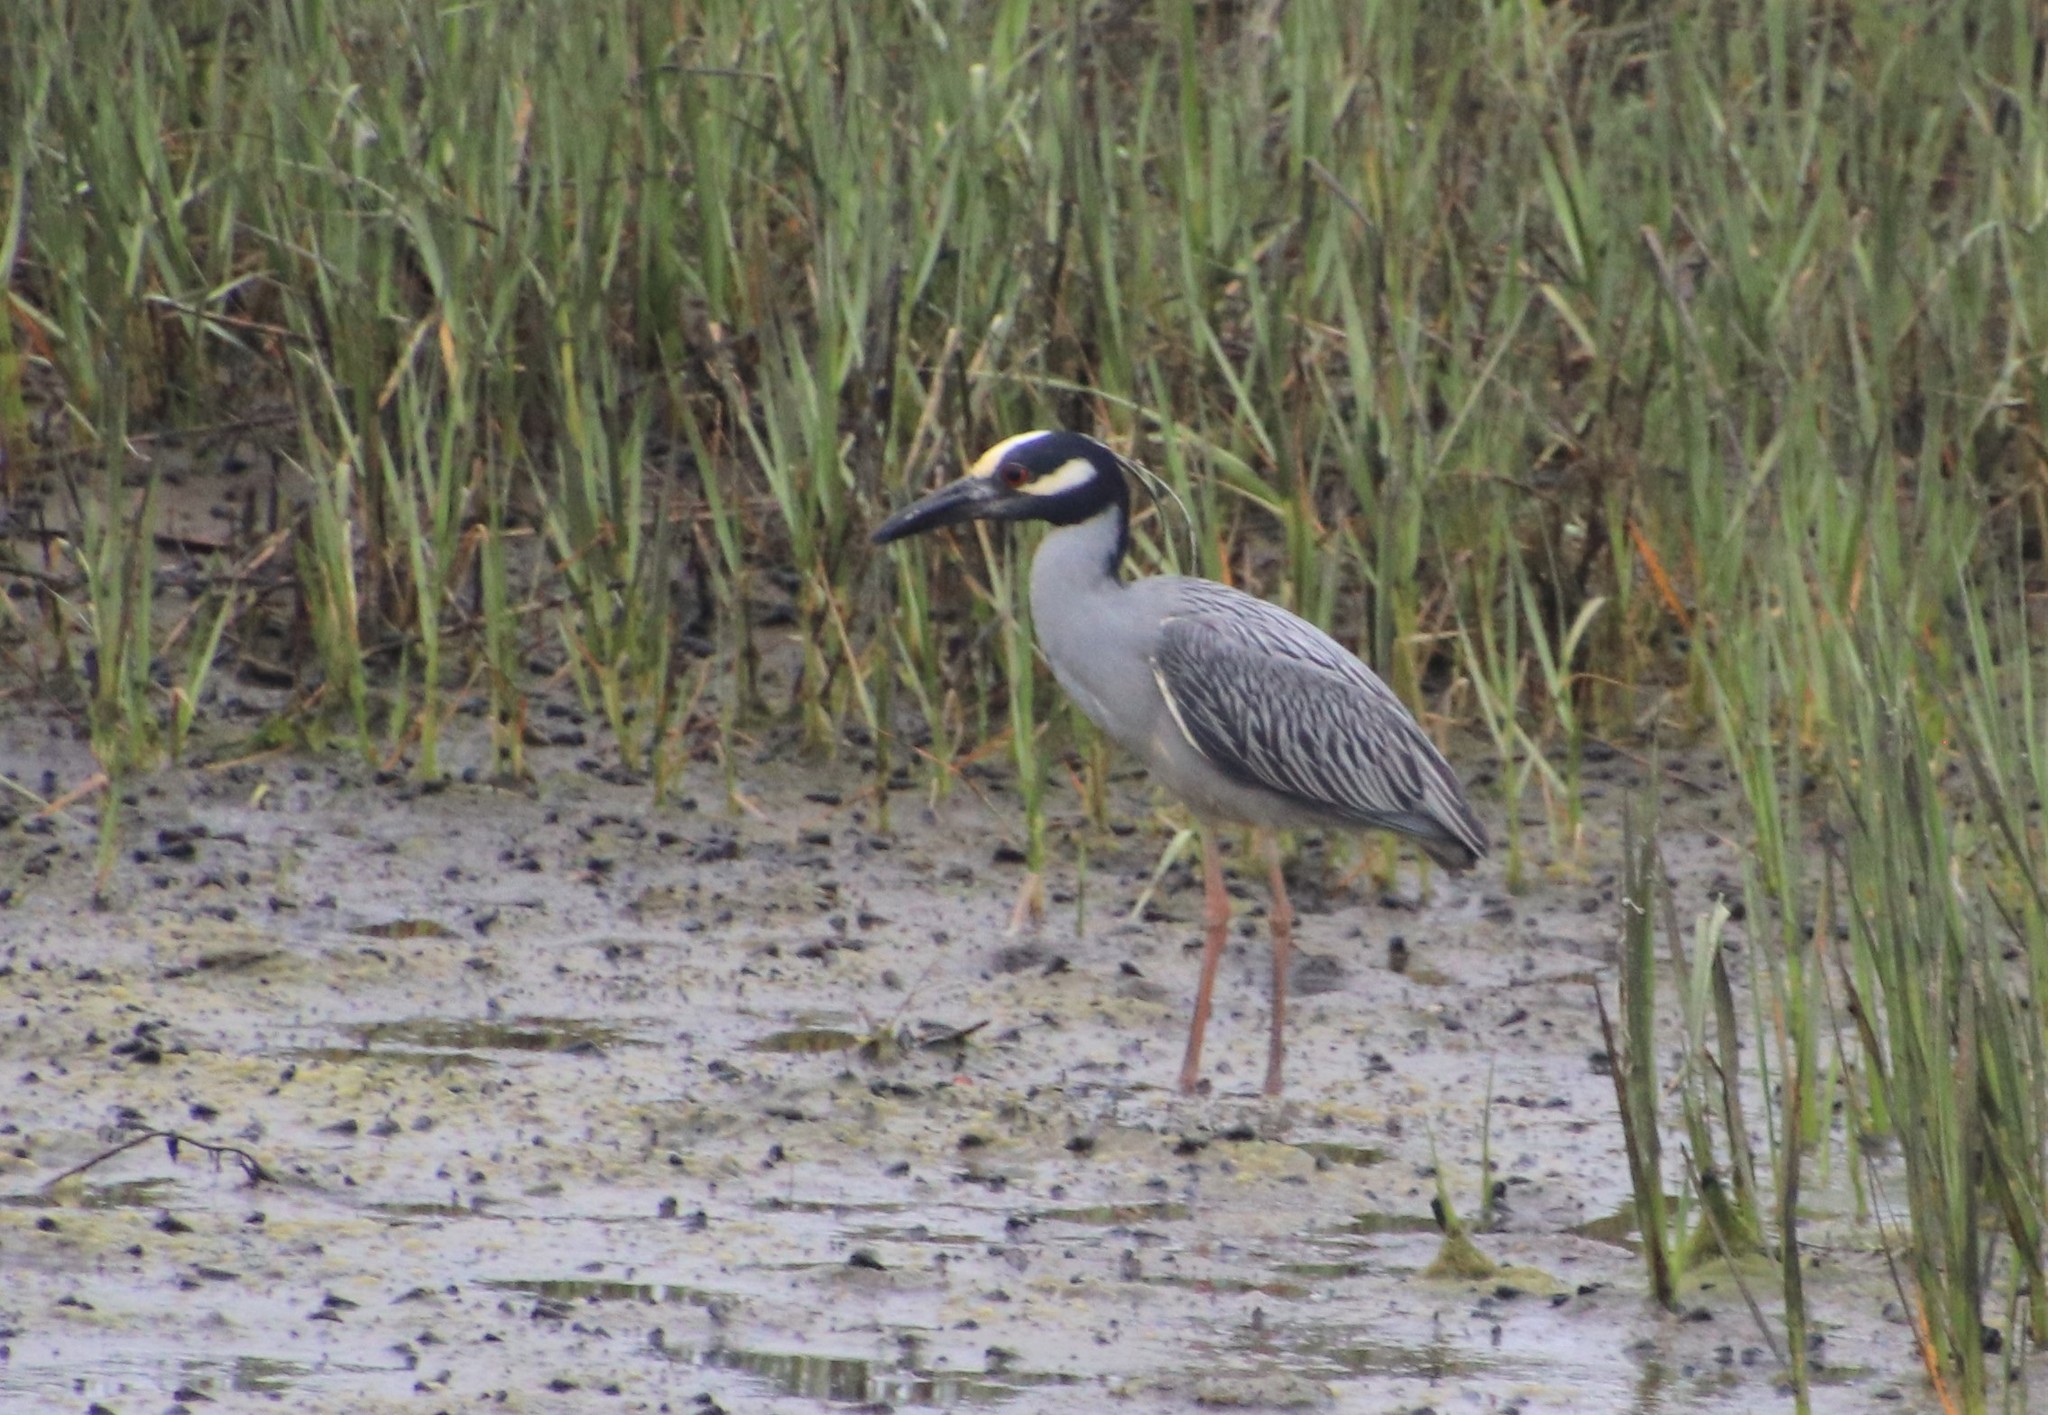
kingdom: Animalia
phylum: Chordata
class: Aves
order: Pelecaniformes
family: Ardeidae
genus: Nyctanassa
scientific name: Nyctanassa violacea
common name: Yellow-crowned night heron
